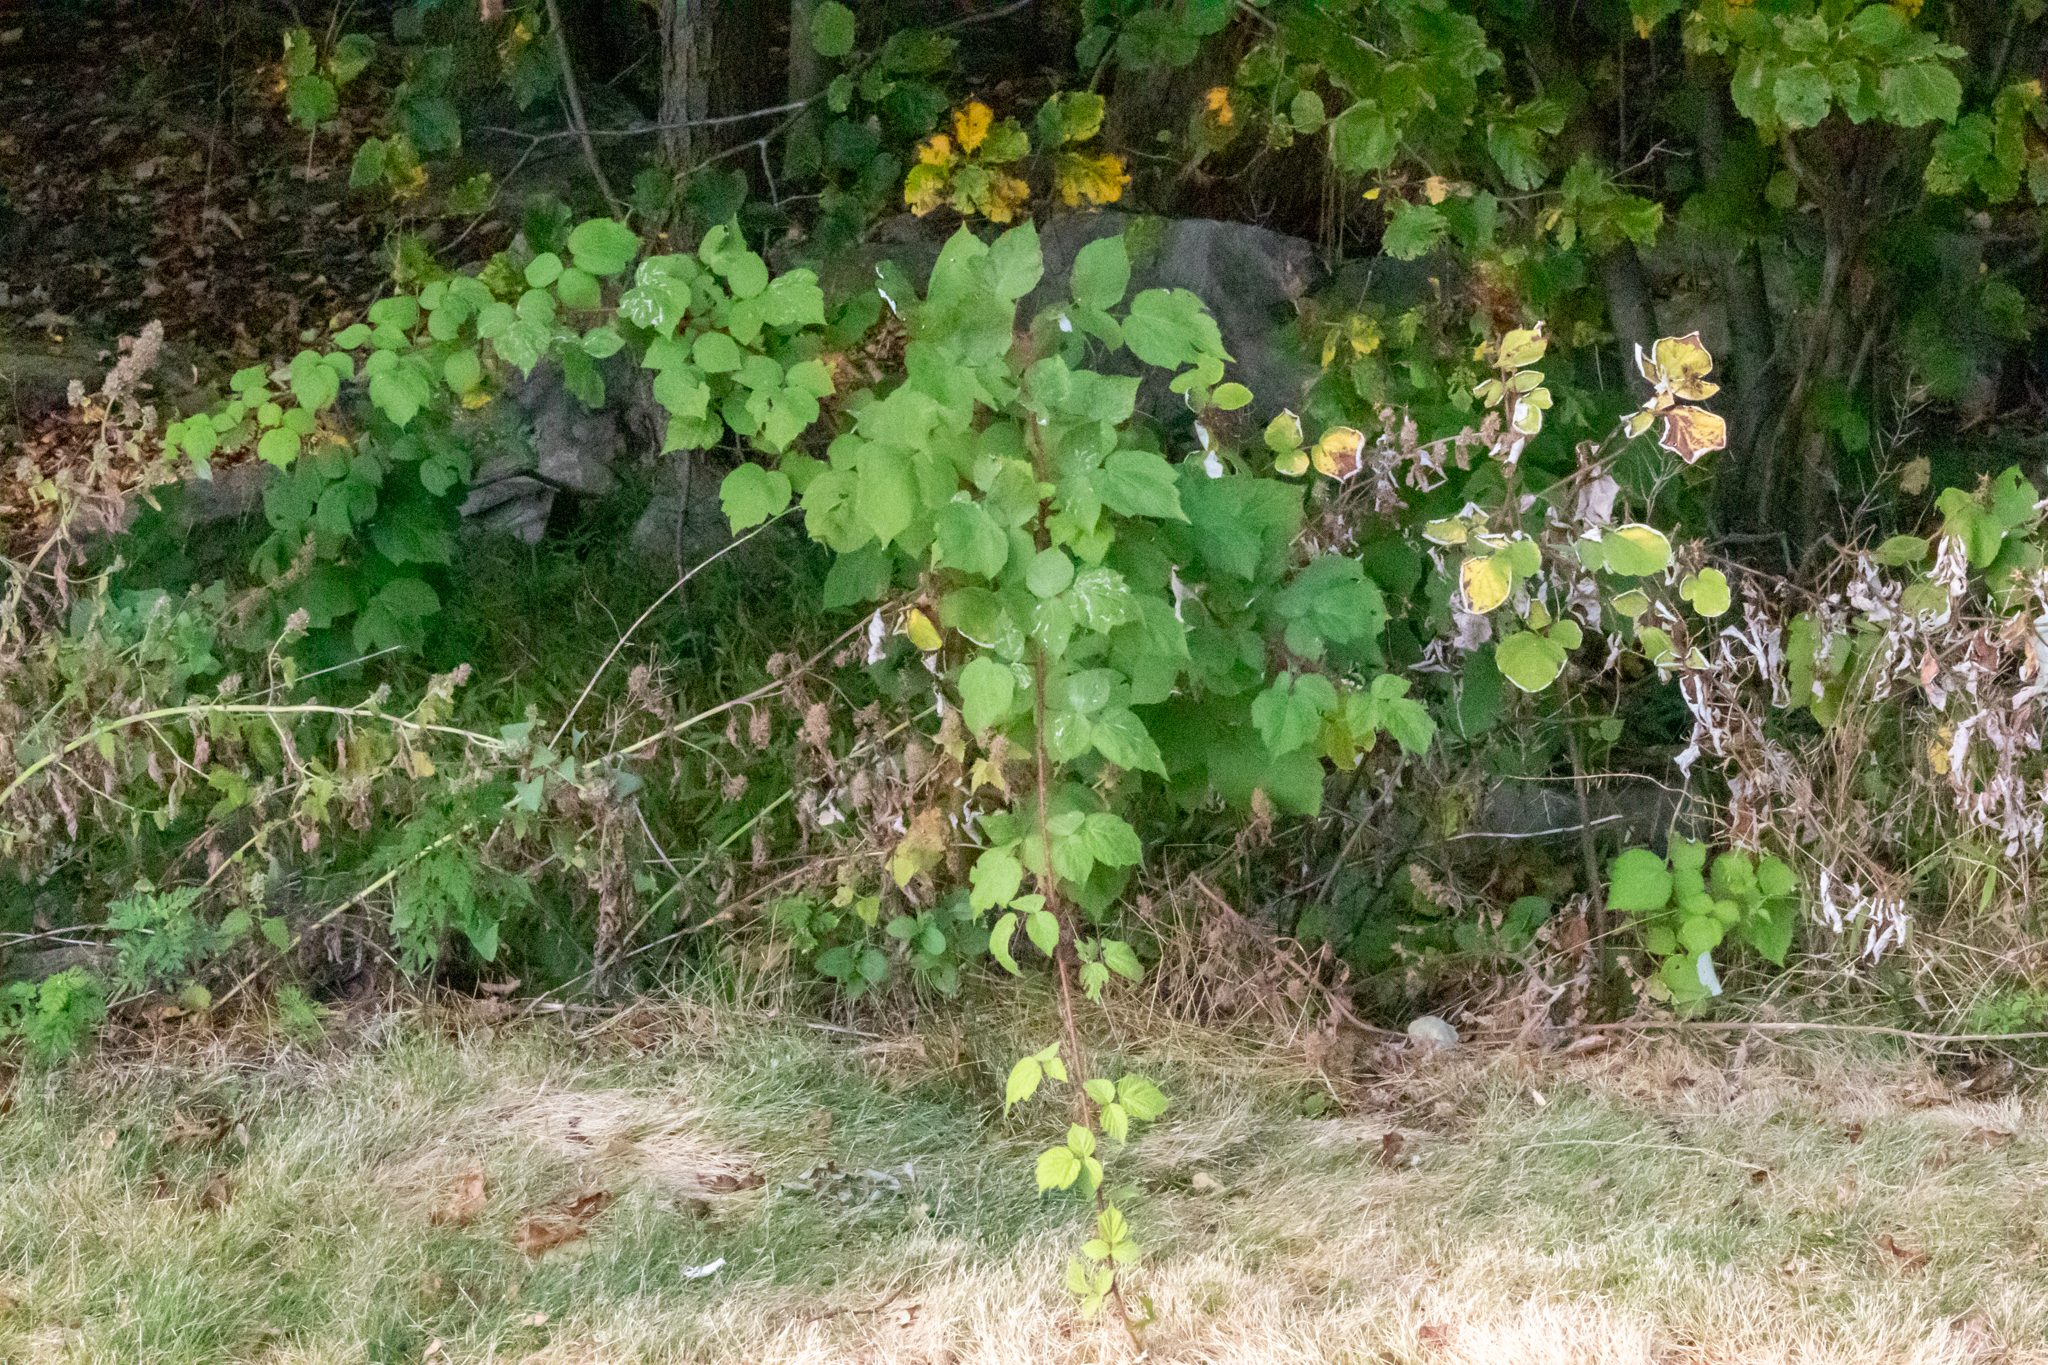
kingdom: Plantae
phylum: Tracheophyta
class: Magnoliopsida
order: Rosales
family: Rosaceae
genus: Rubus
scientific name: Rubus phoenicolasius
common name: Japanese wineberry
